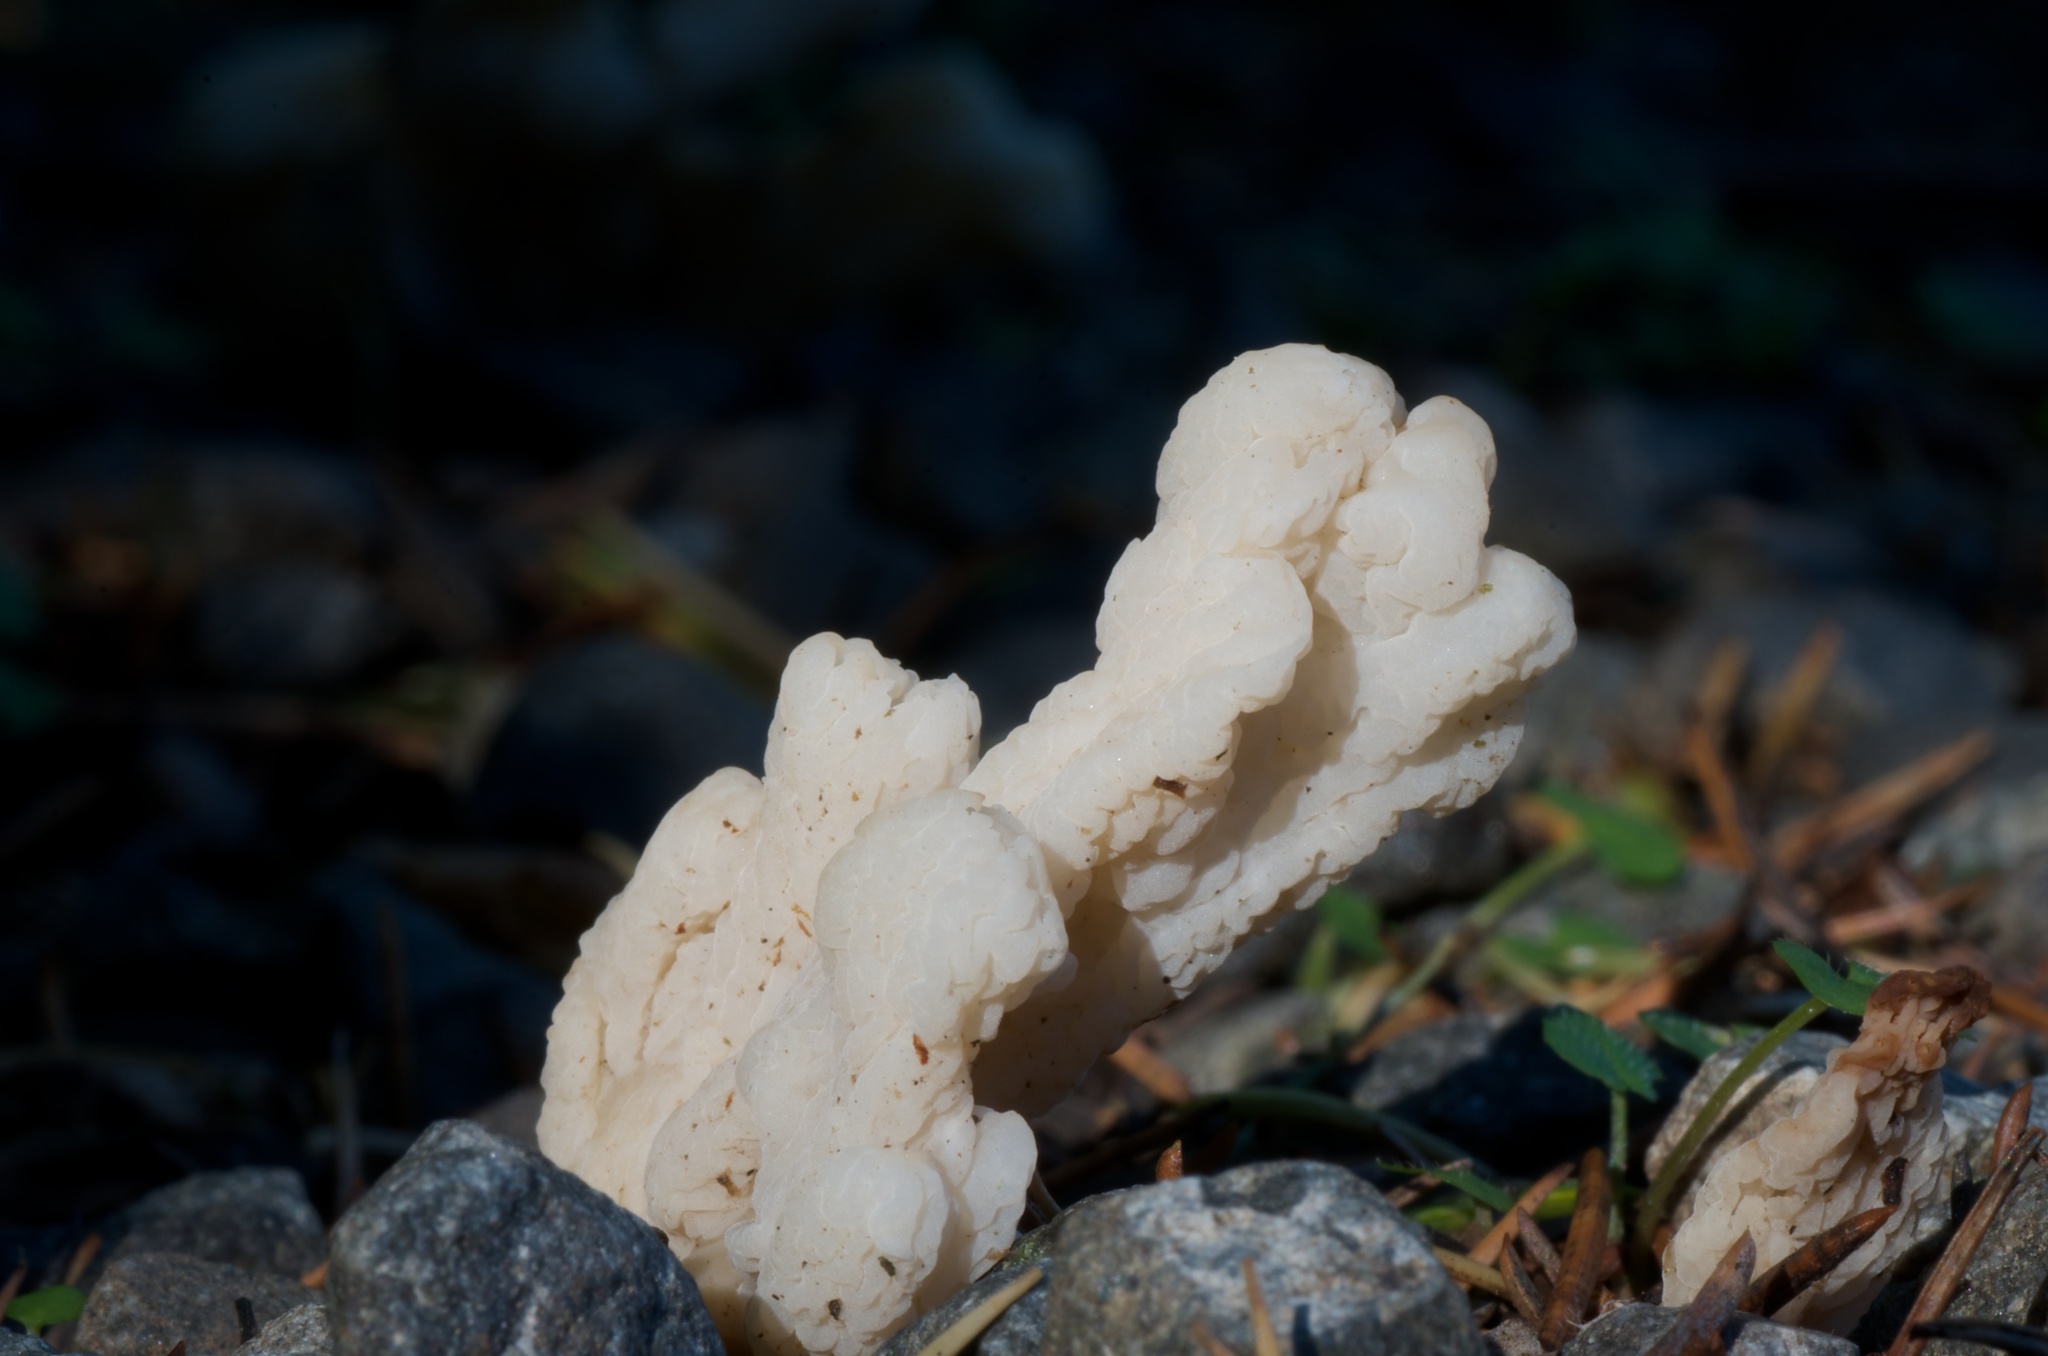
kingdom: Fungi
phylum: Basidiomycota
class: Agaricomycetes
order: Cantharellales
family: Hydnaceae
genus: Clavulina
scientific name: Clavulina rugosa
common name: Wrinkled club
